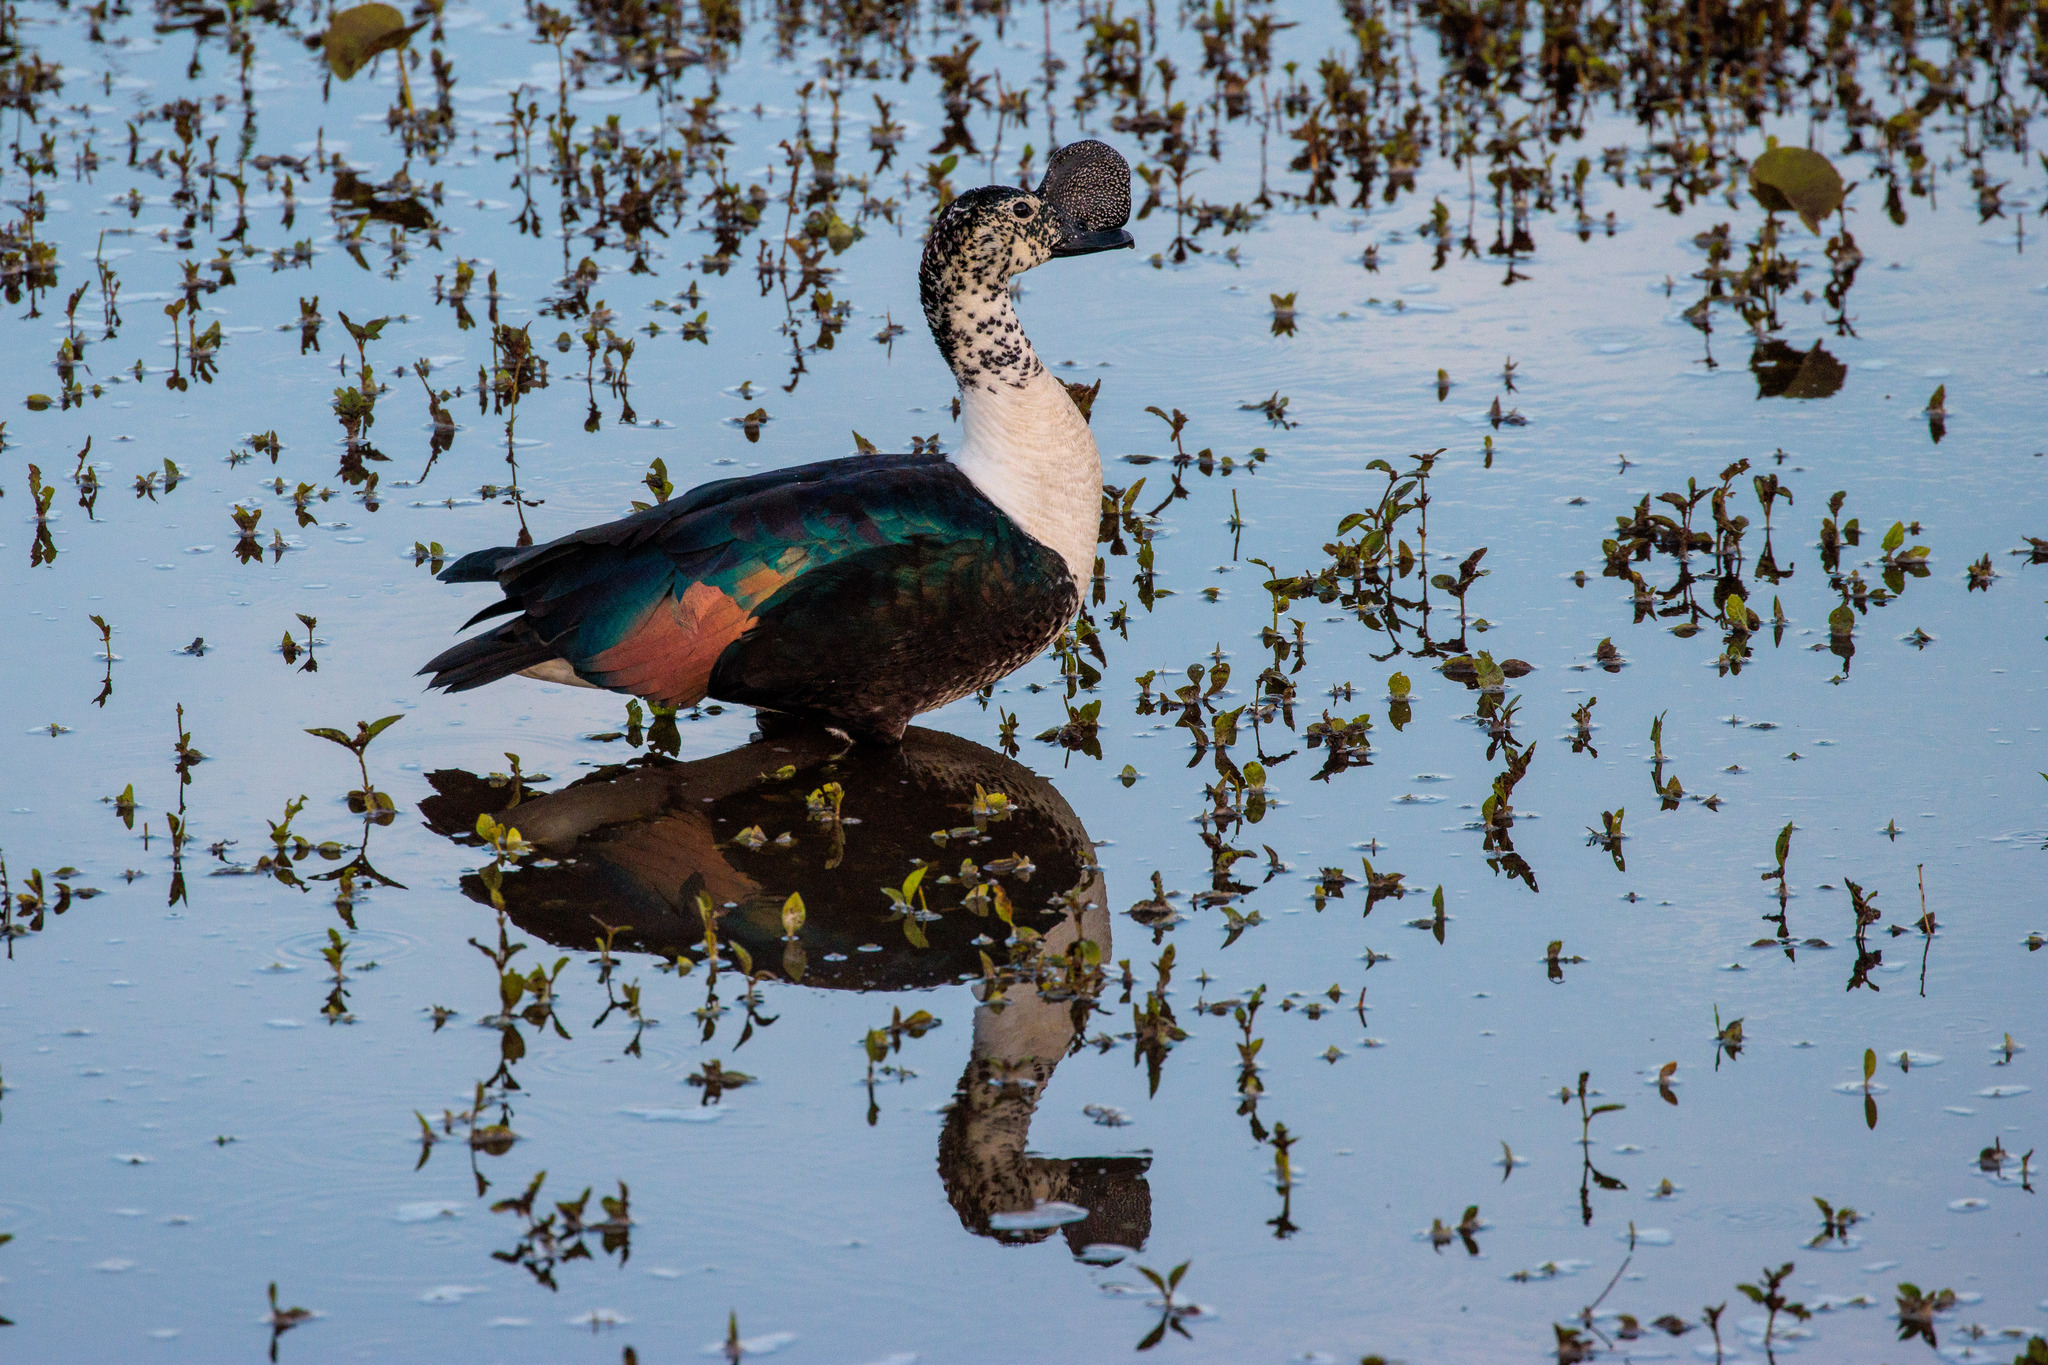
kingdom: Animalia
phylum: Chordata
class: Aves
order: Anseriformes
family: Anatidae
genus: Sarkidiornis
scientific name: Sarkidiornis sylvicola
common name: Comb duck
